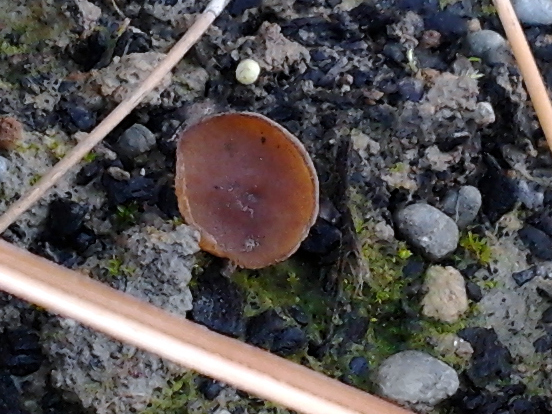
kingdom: Fungi
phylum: Ascomycota
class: Pezizomycetes
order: Pezizales
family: Pezizaceae
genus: Peziza
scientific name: Peziza
